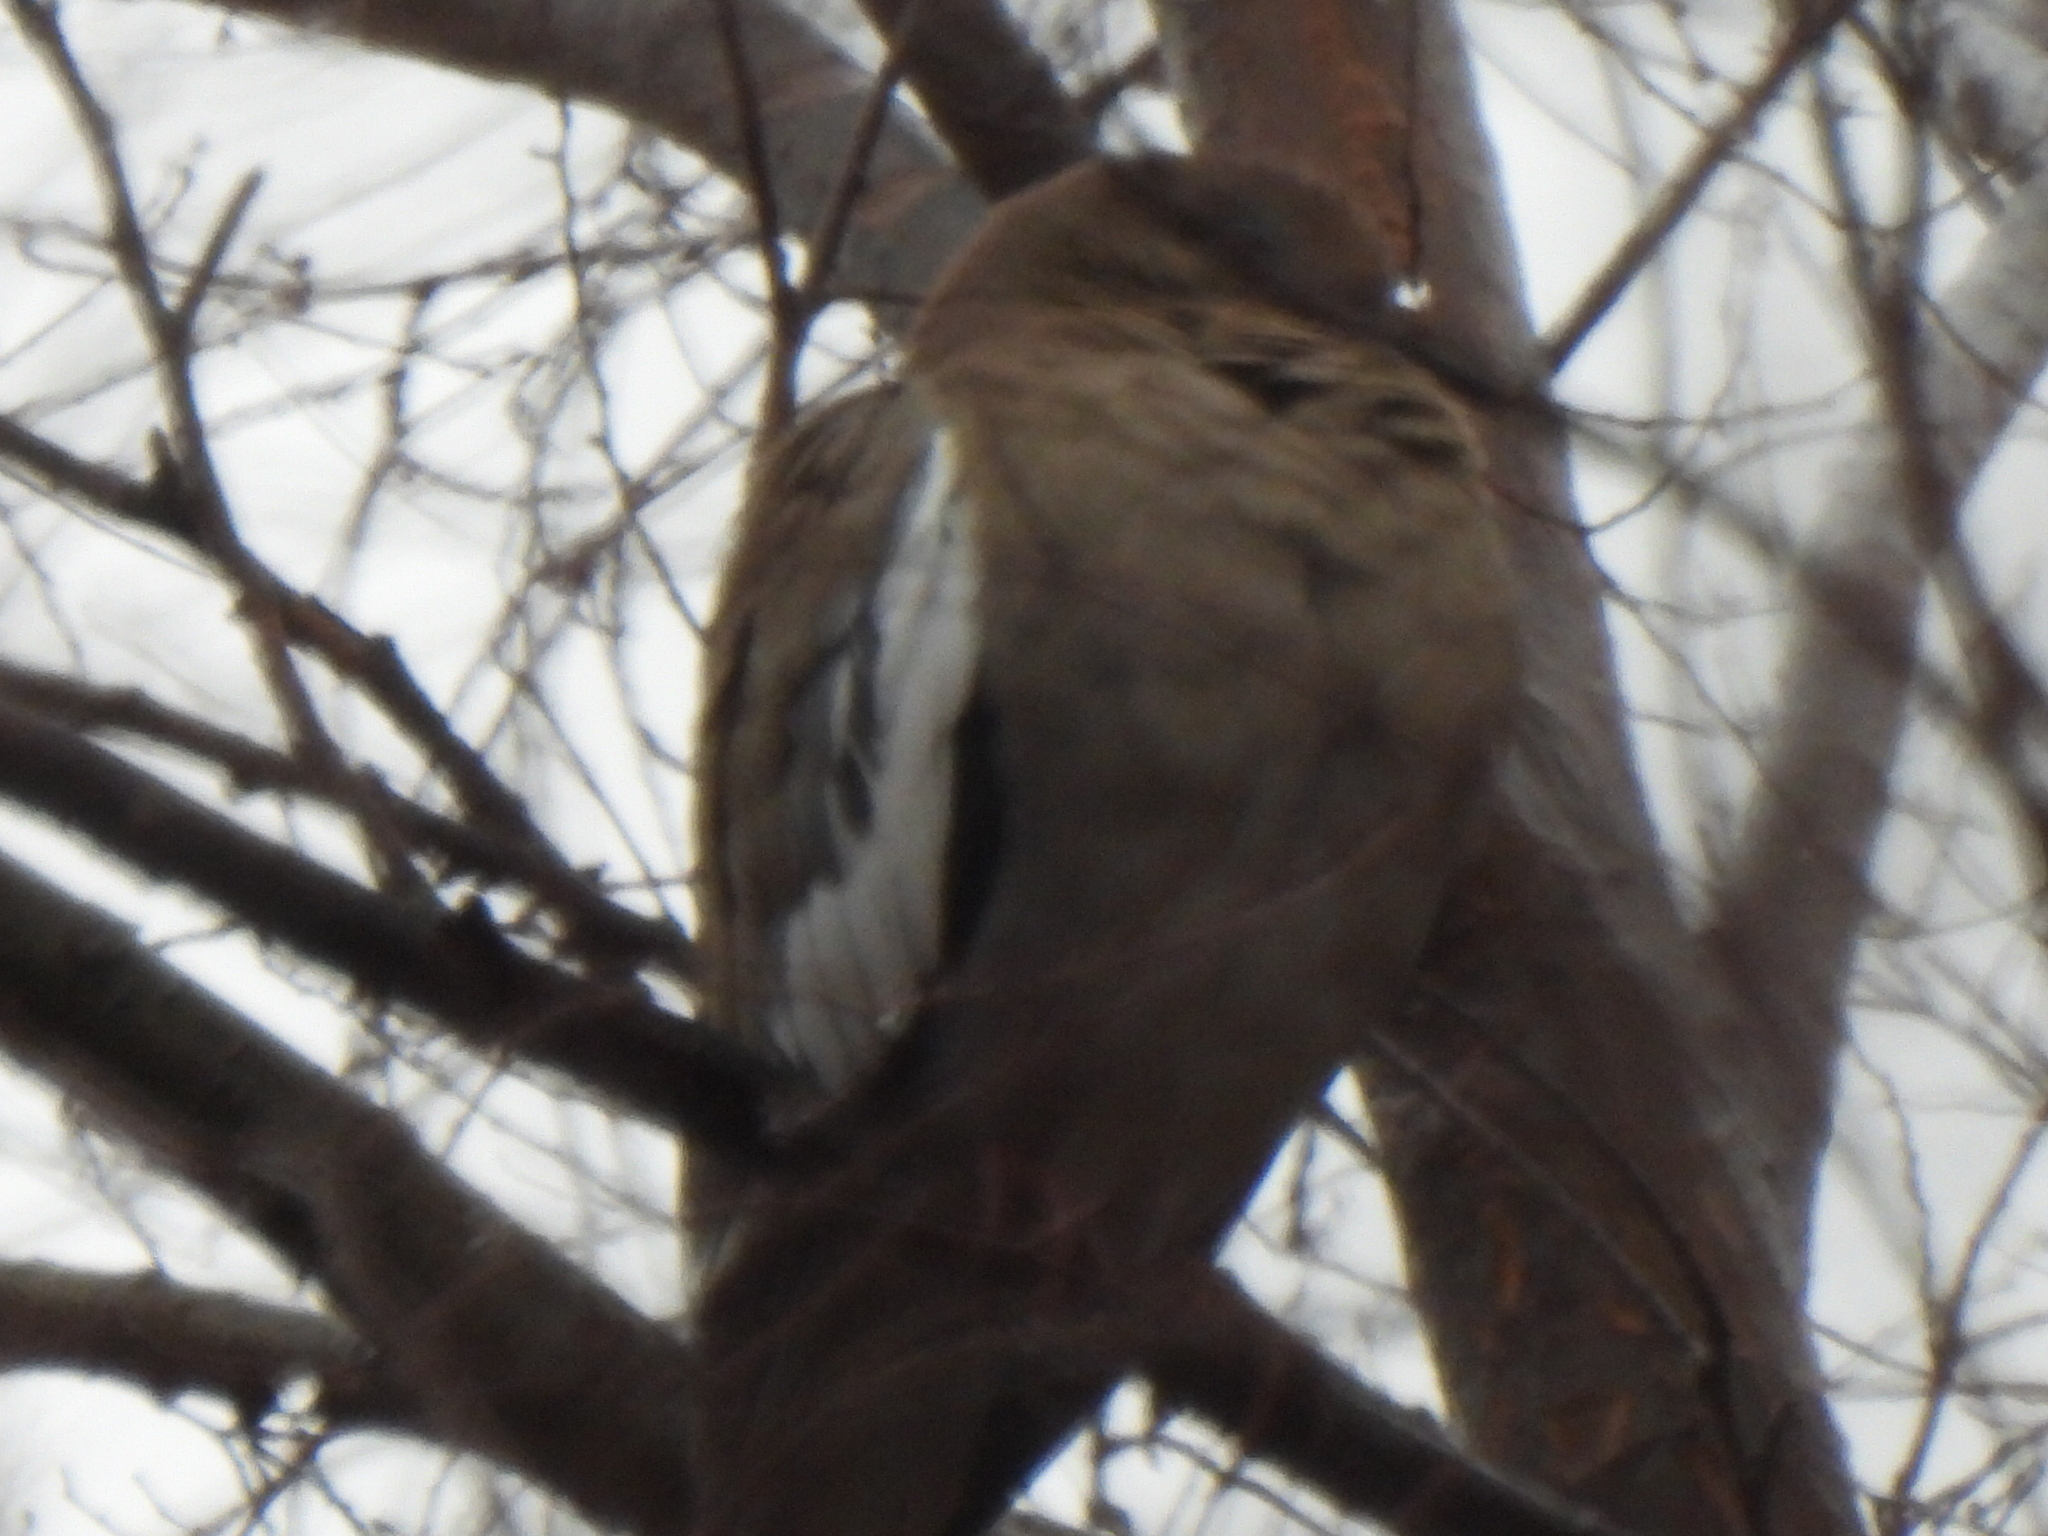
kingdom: Animalia
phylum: Chordata
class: Aves
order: Columbiformes
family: Columbidae
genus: Zenaida
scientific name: Zenaida asiatica
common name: White-winged dove
